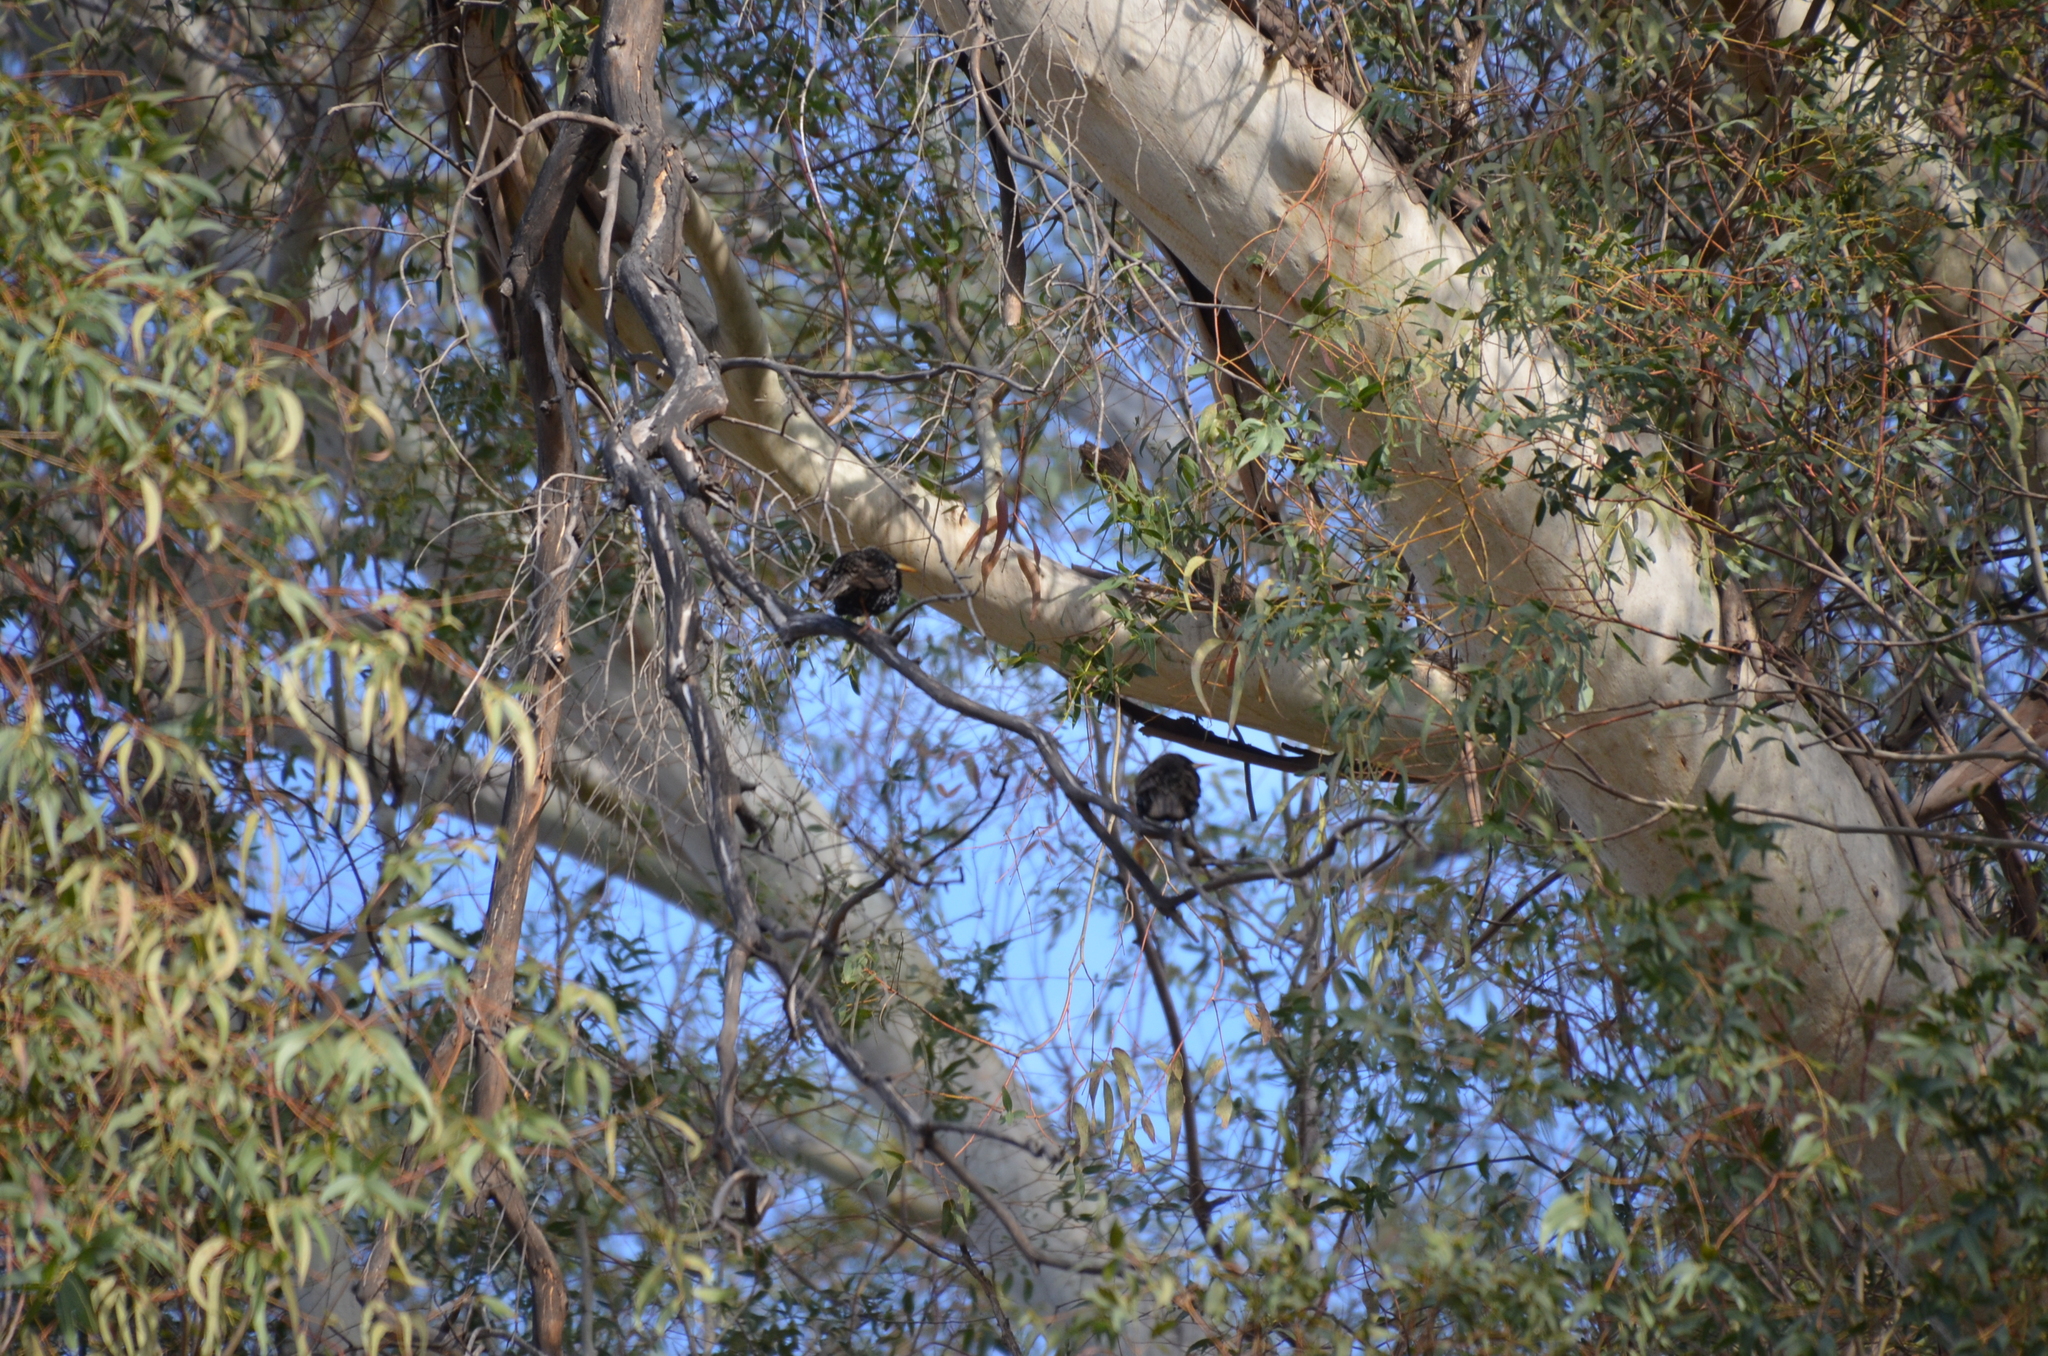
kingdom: Animalia
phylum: Chordata
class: Aves
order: Passeriformes
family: Sturnidae
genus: Sturnus
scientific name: Sturnus vulgaris
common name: Common starling
